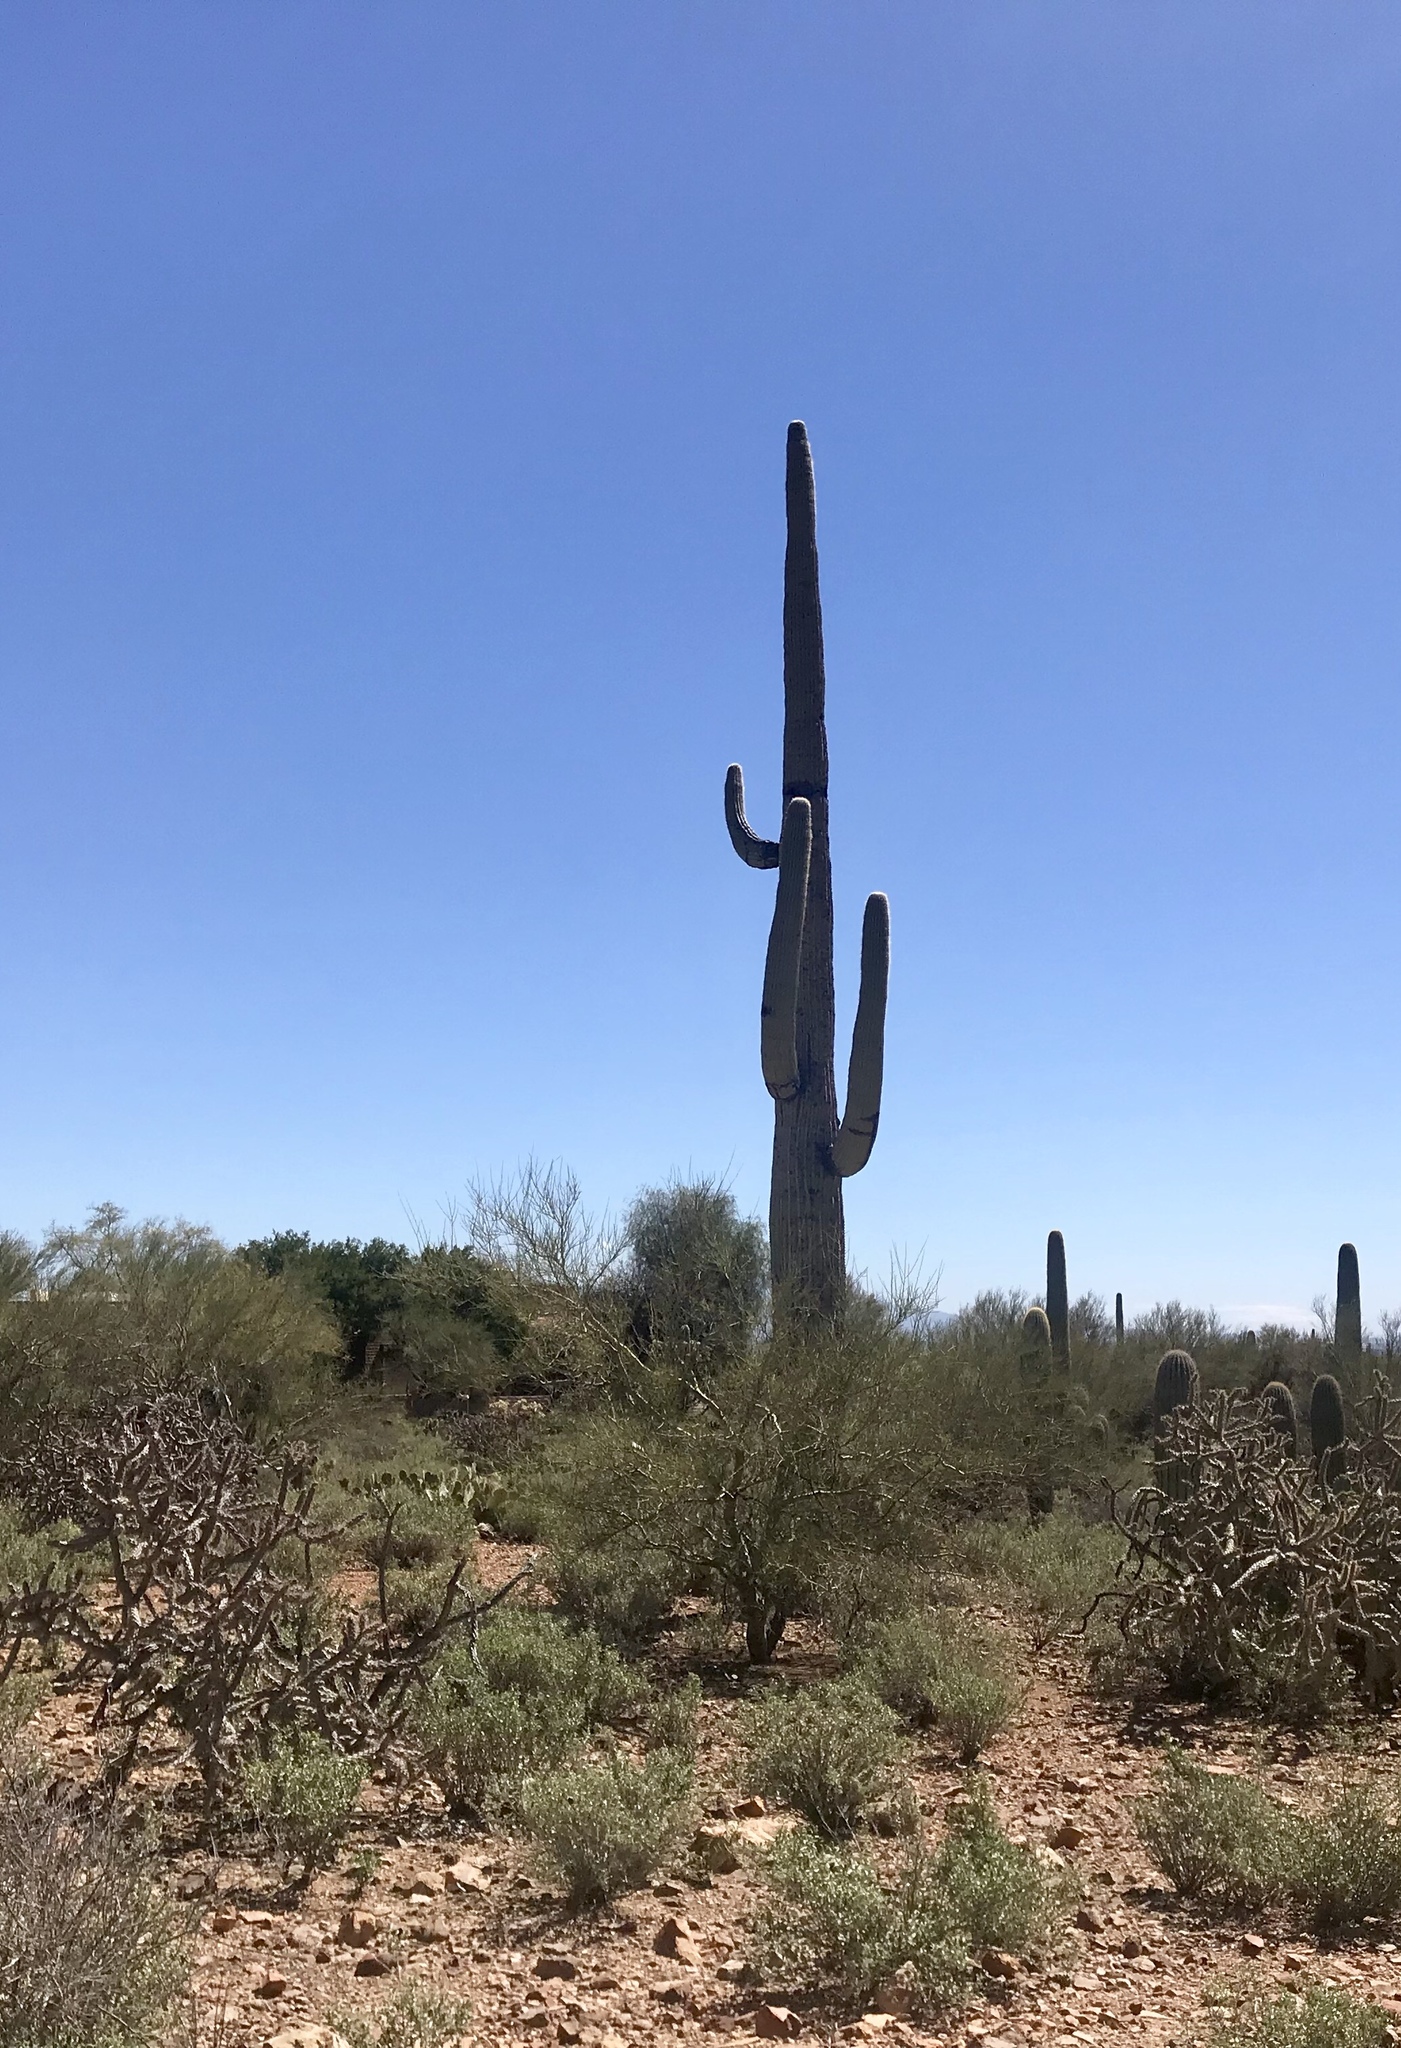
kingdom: Plantae
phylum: Tracheophyta
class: Magnoliopsida
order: Caryophyllales
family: Cactaceae
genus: Carnegiea
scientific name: Carnegiea gigantea
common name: Saguaro
